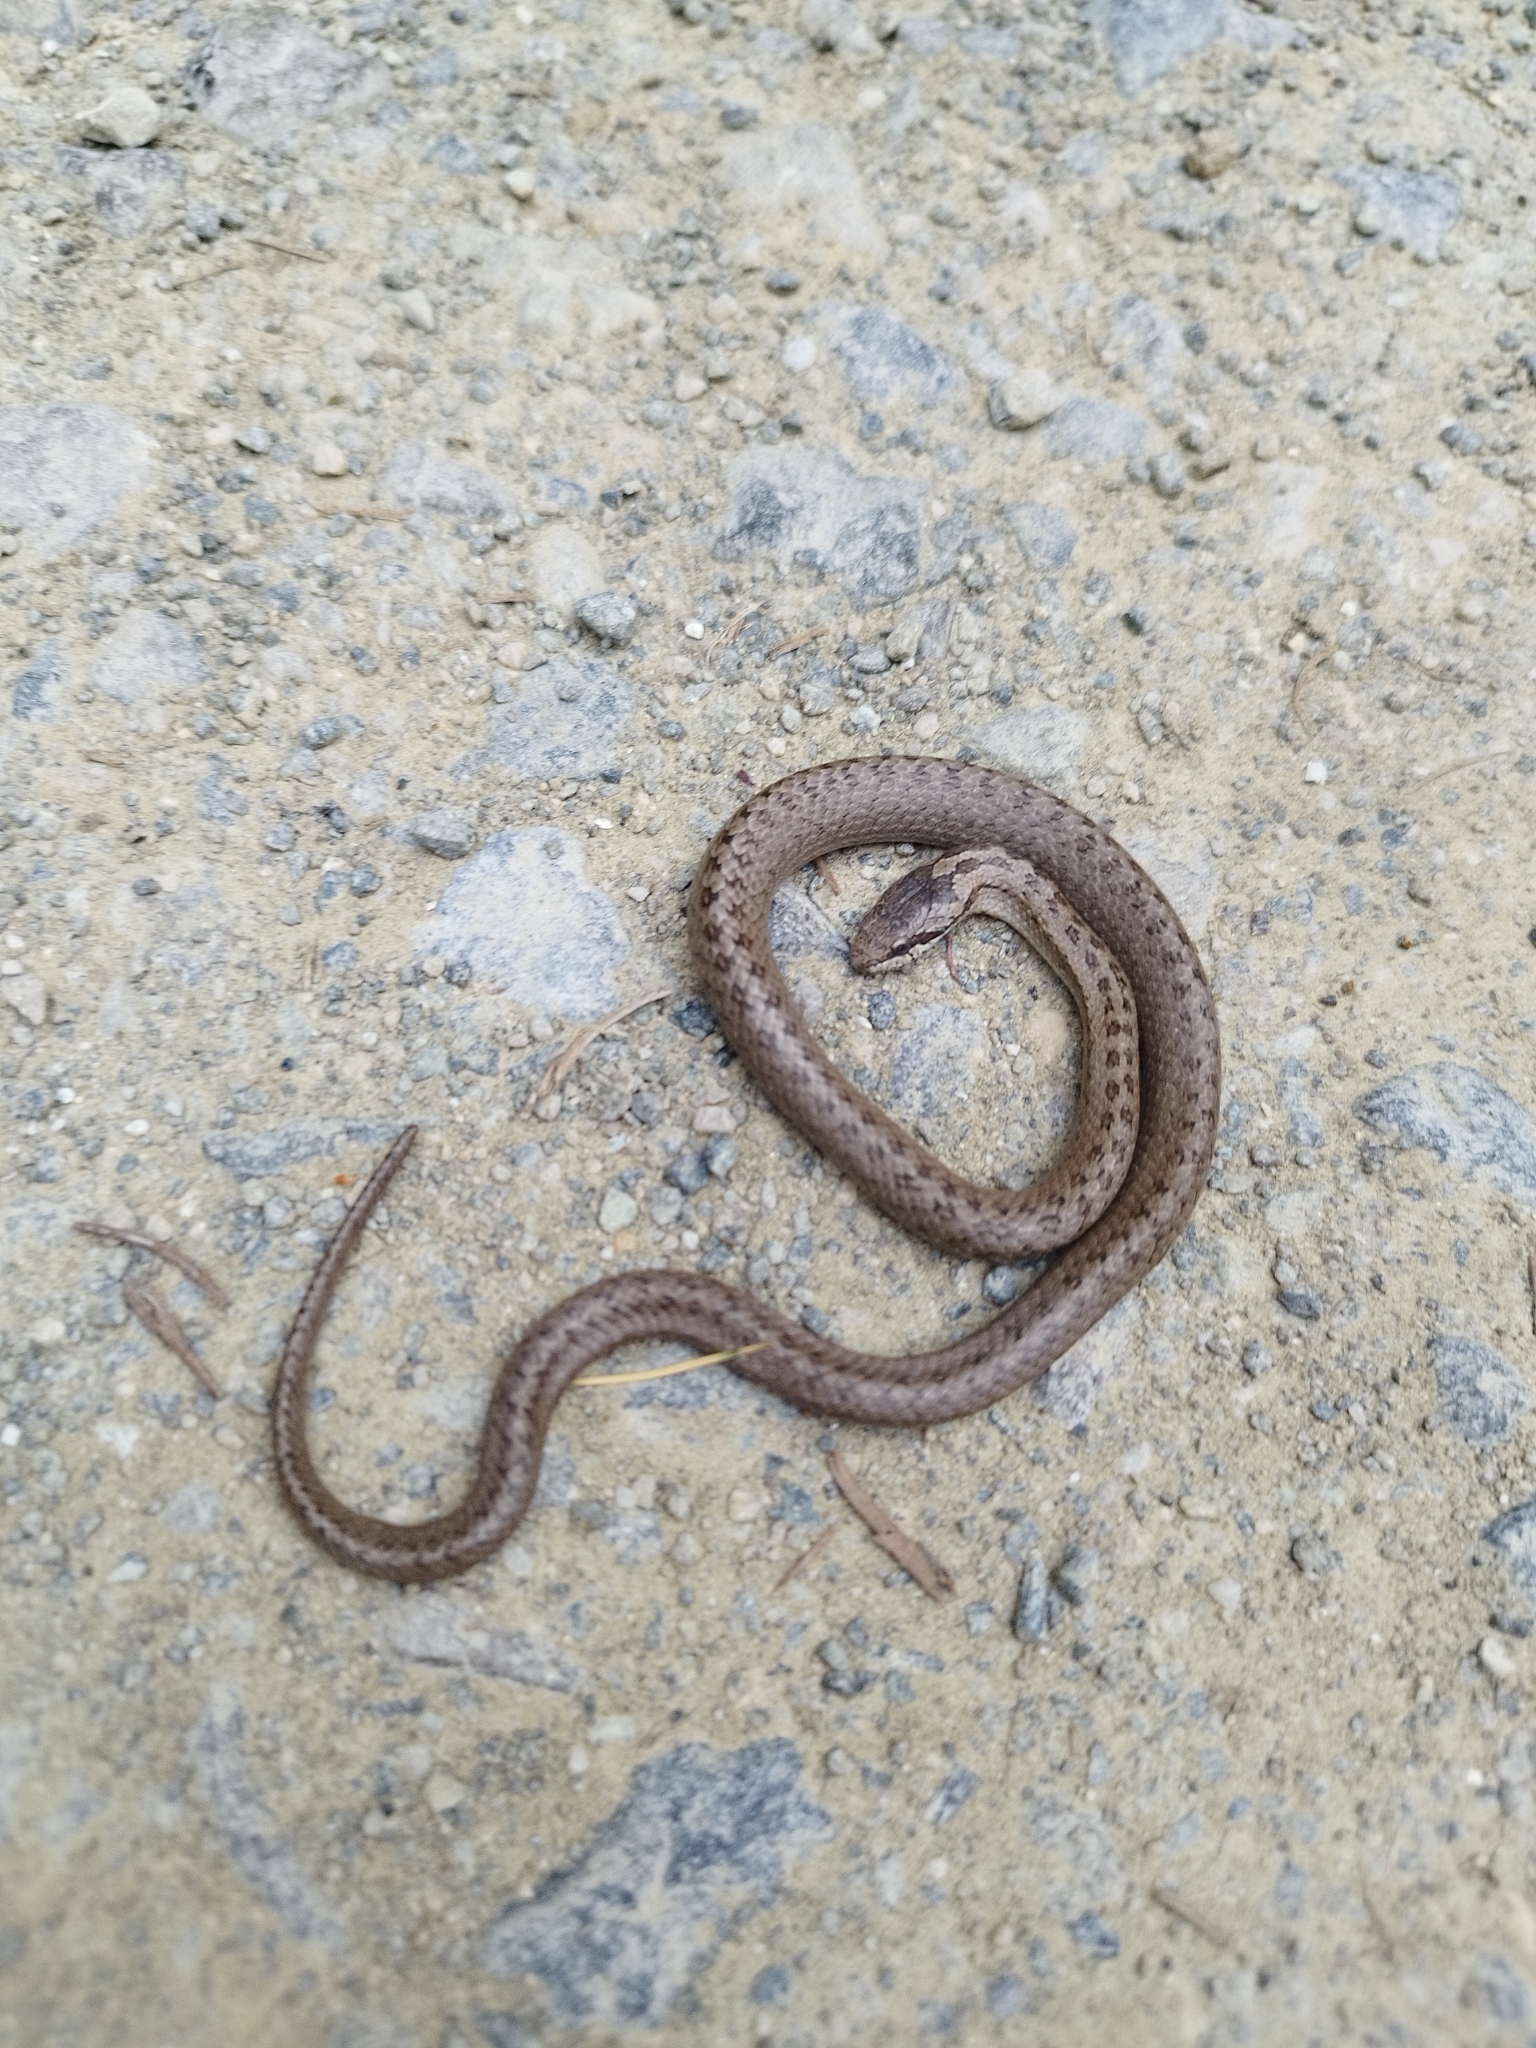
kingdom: Animalia
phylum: Chordata
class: Squamata
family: Colubridae
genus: Coronella
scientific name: Coronella austriaca
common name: Smooth snake
